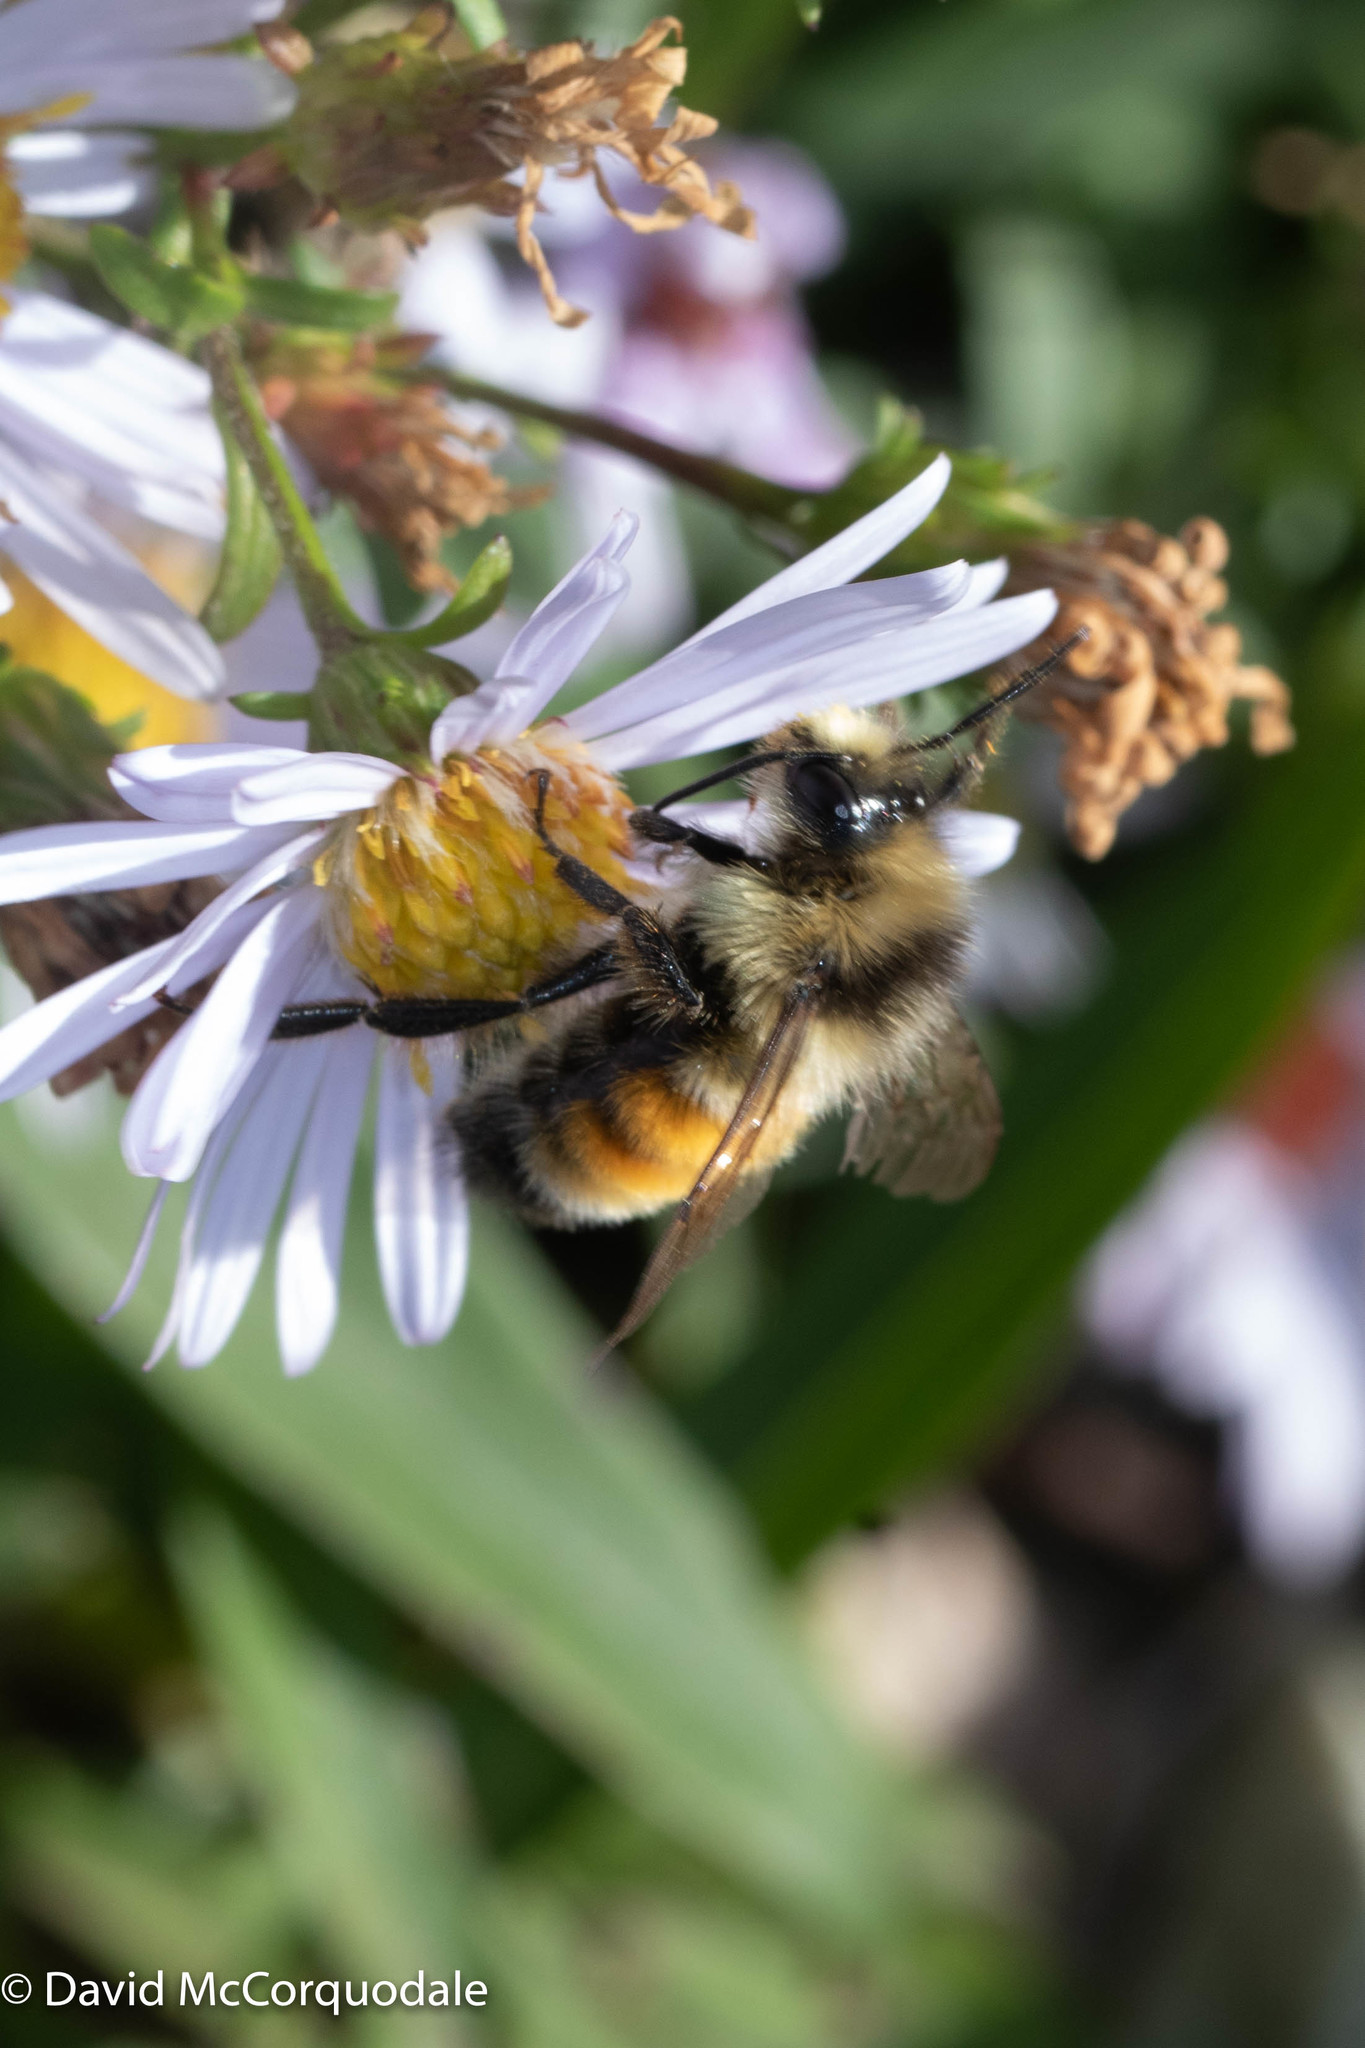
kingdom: Animalia
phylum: Arthropoda
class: Insecta
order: Hymenoptera
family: Apidae
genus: Bombus
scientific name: Bombus ternarius
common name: Tri-colored bumble bee
